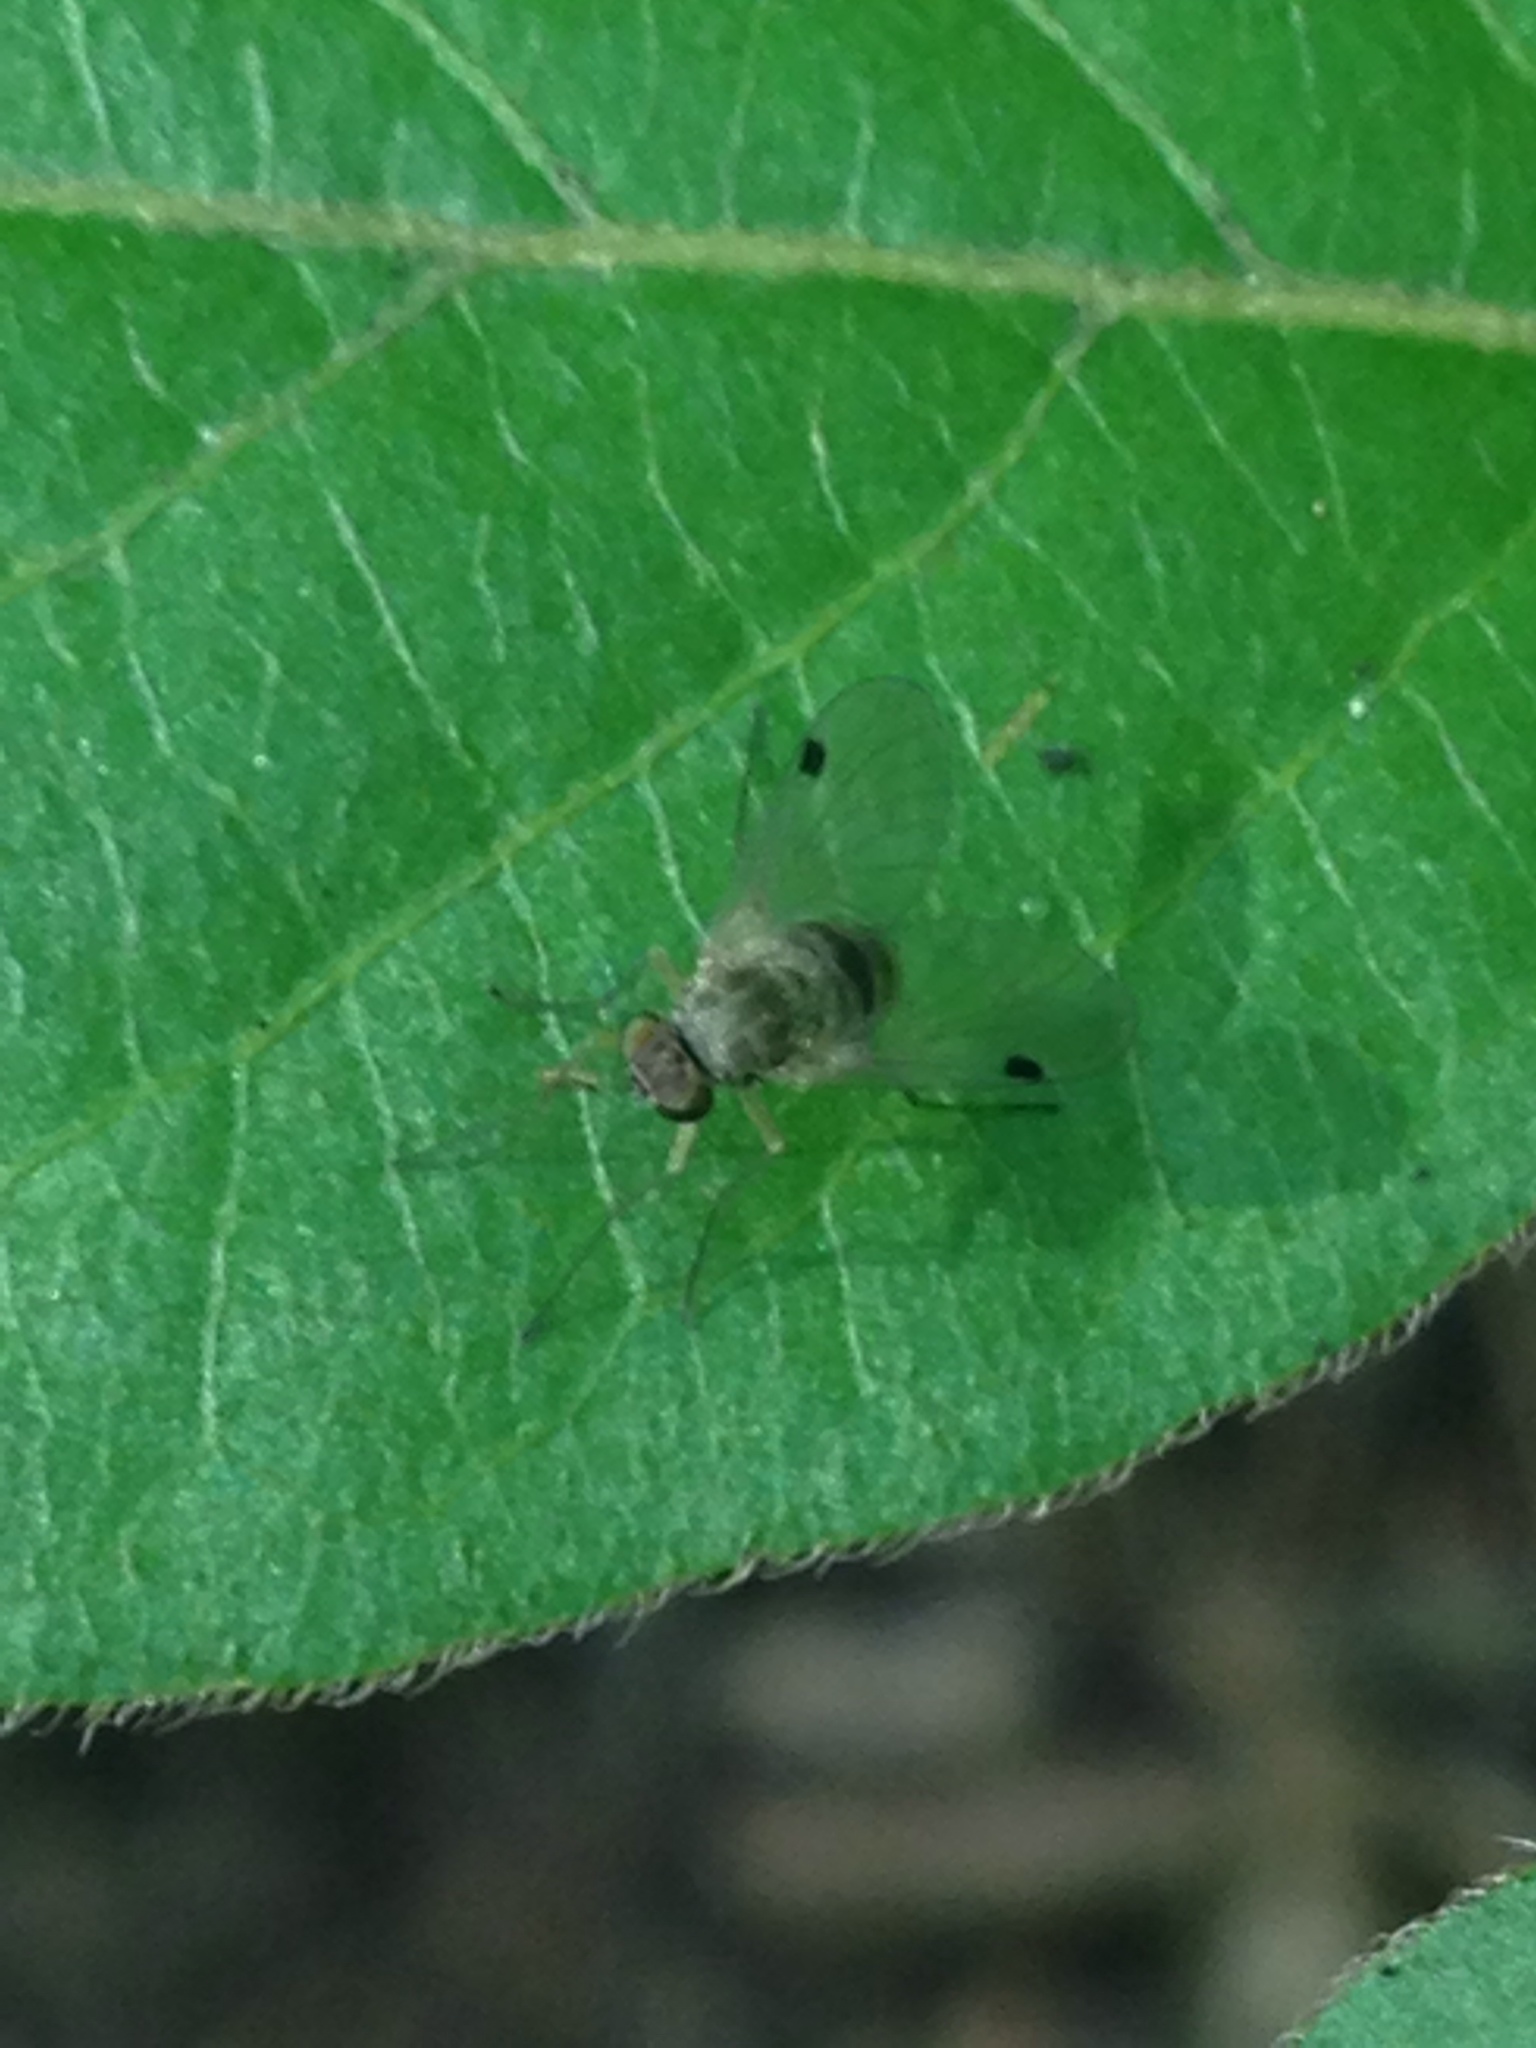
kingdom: Animalia
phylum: Arthropoda
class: Insecta
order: Diptera
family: Rhagionidae
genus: Chrysopilus
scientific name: Chrysopilus modestus
